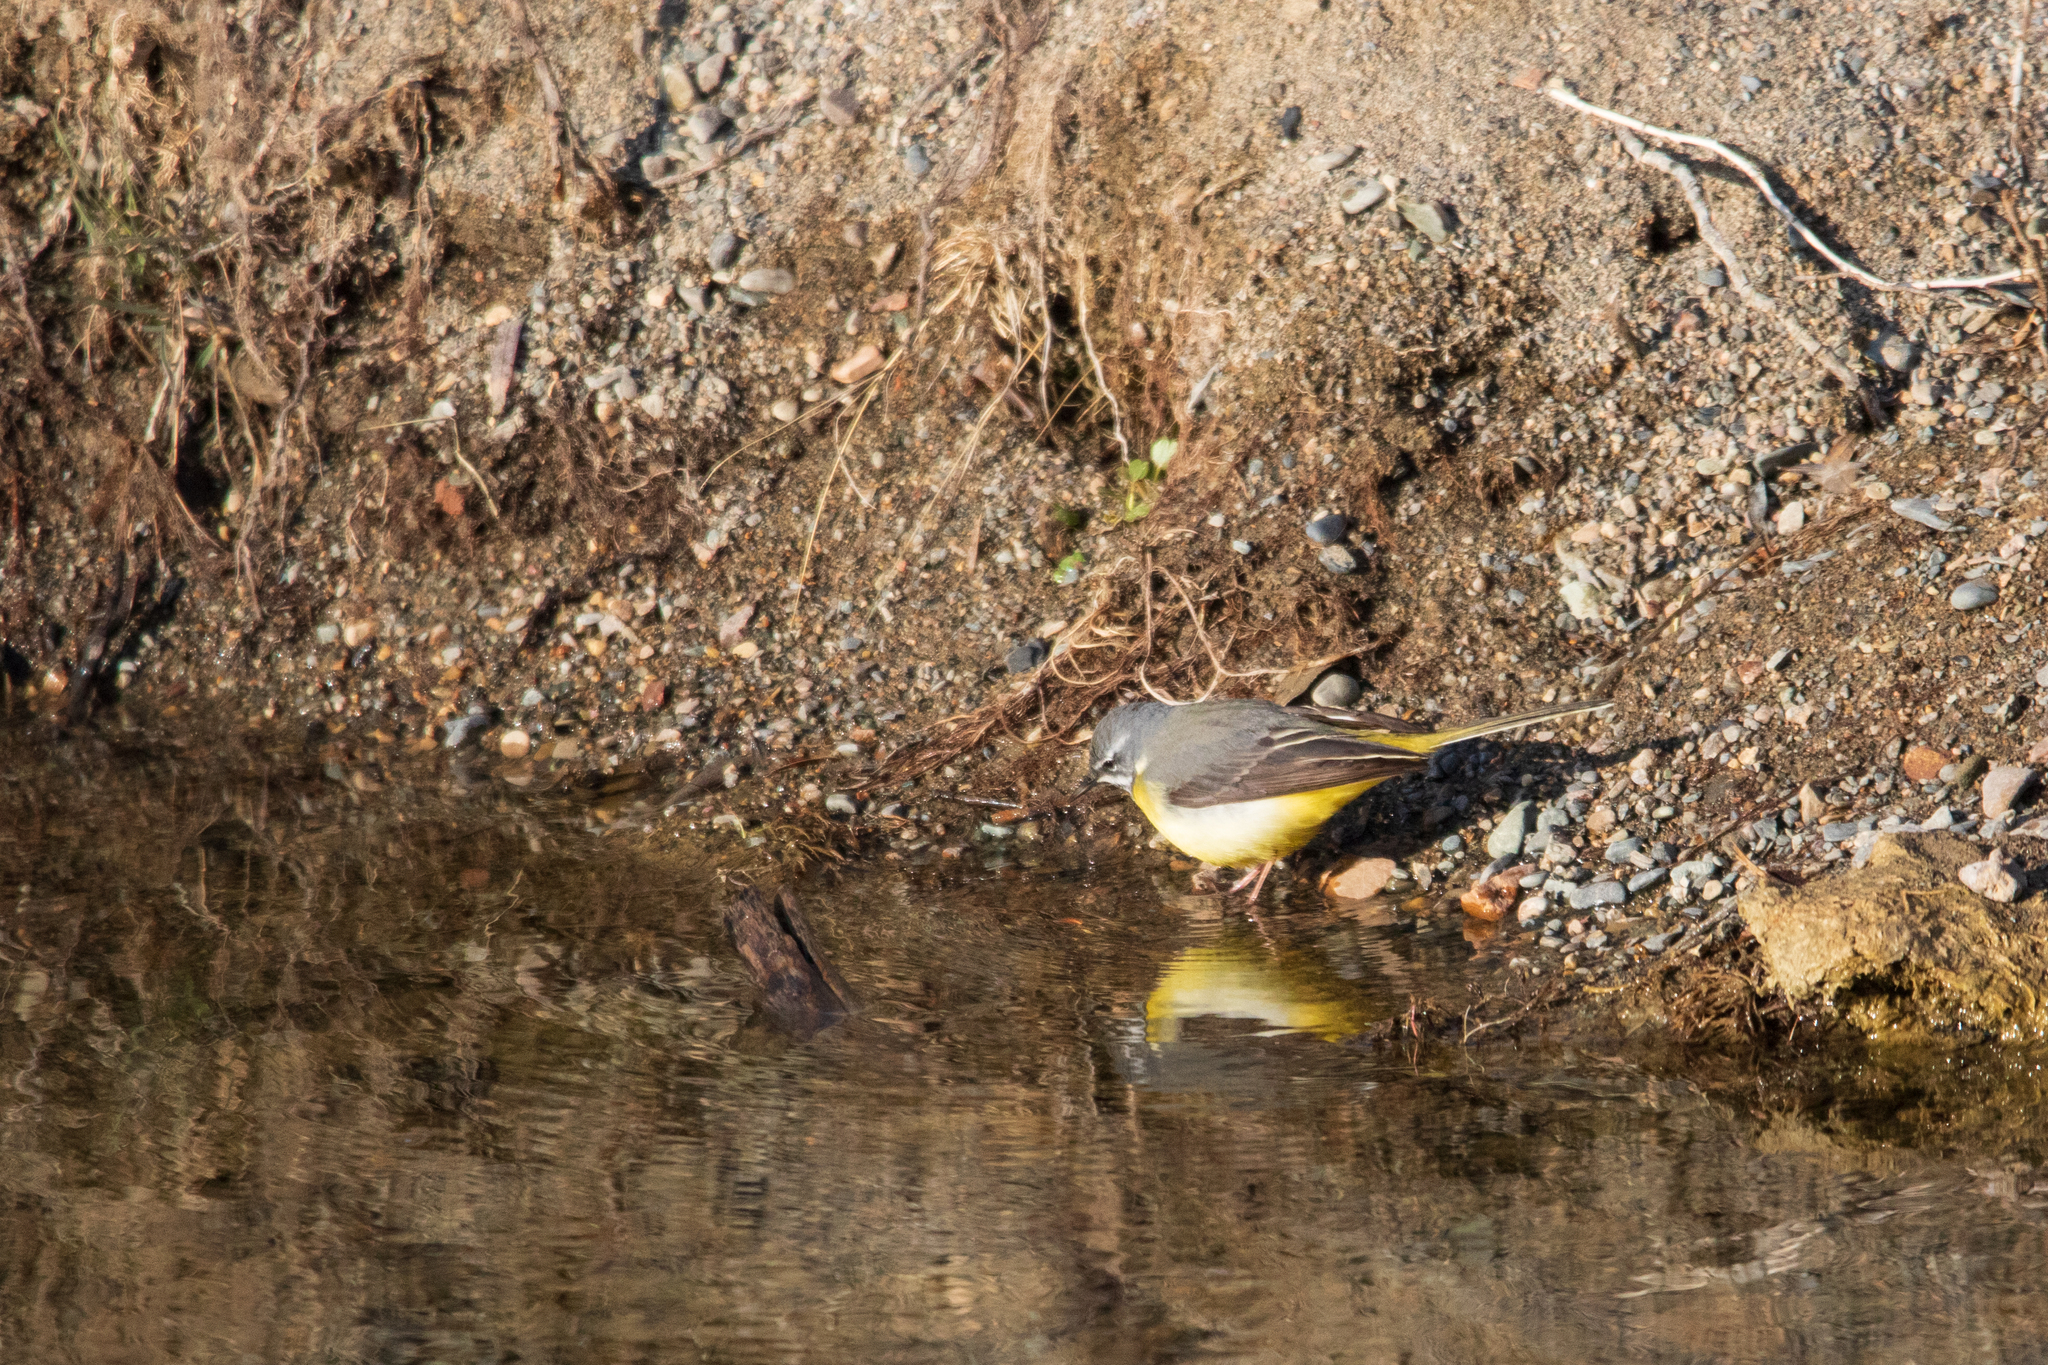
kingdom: Animalia
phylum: Chordata
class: Aves
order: Passeriformes
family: Motacillidae
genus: Motacilla
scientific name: Motacilla cinerea
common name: Grey wagtail
